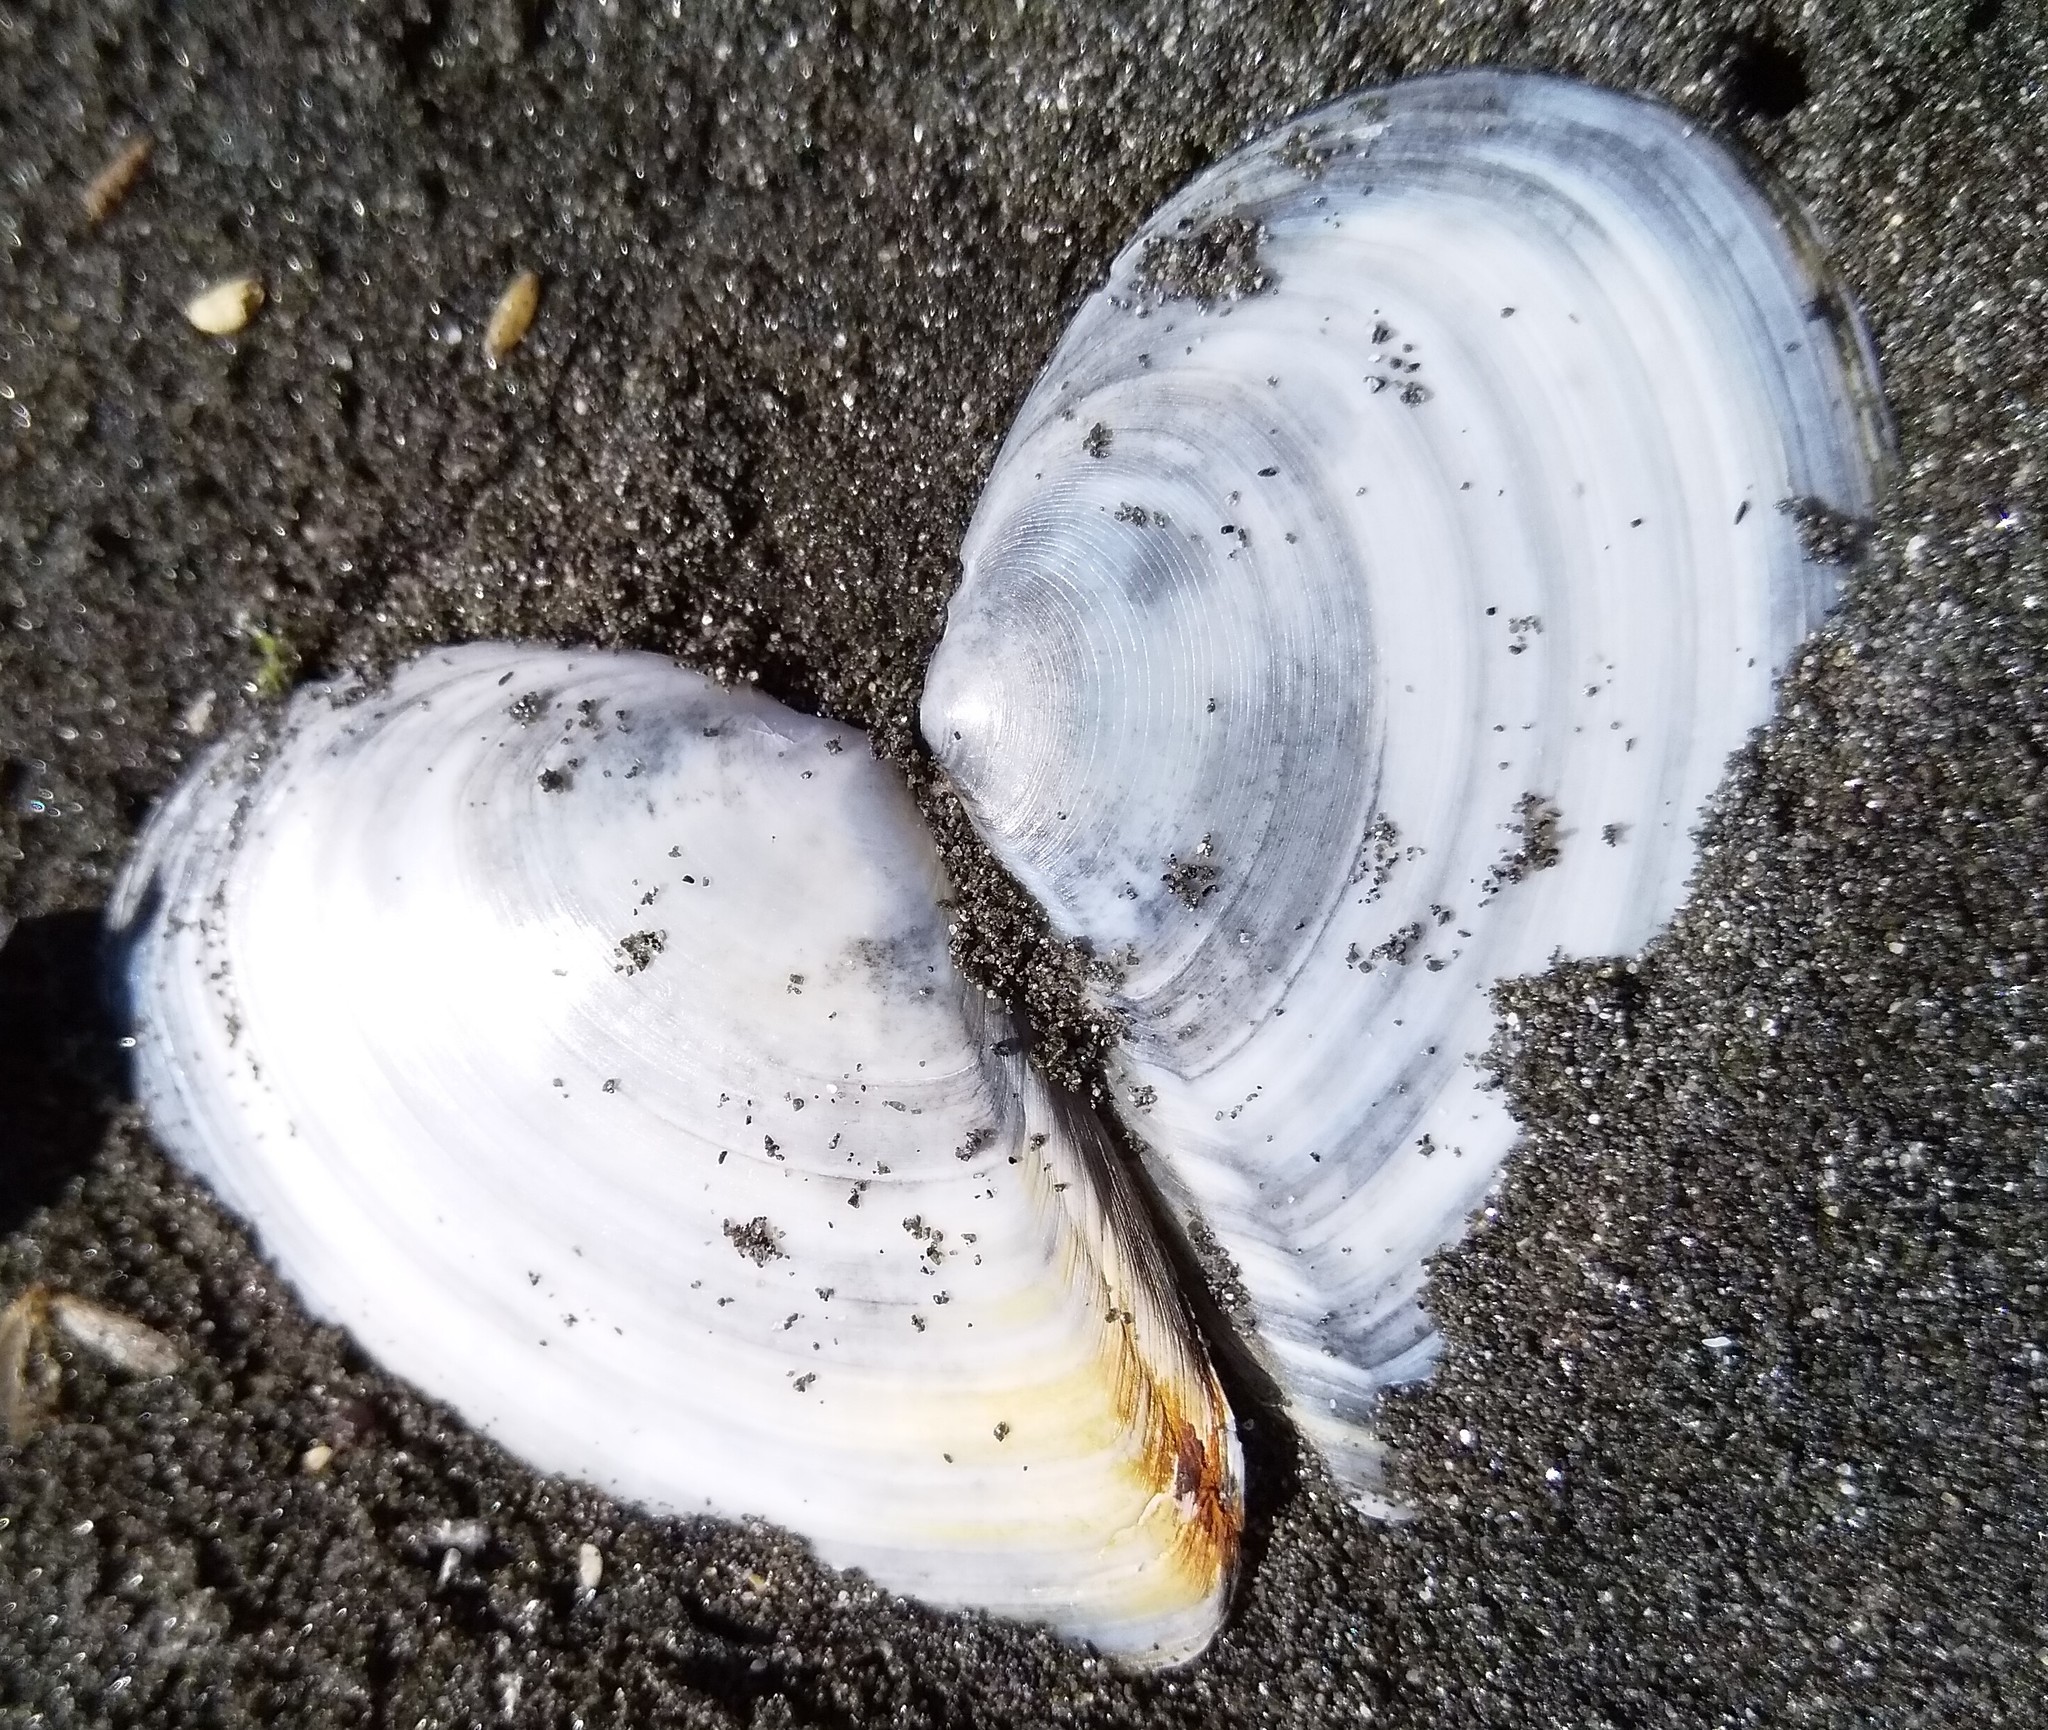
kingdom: Animalia
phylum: Mollusca
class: Bivalvia
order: Cardiida
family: Tellinidae
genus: Bartschicoma
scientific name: Bartschicoma gaimardi
